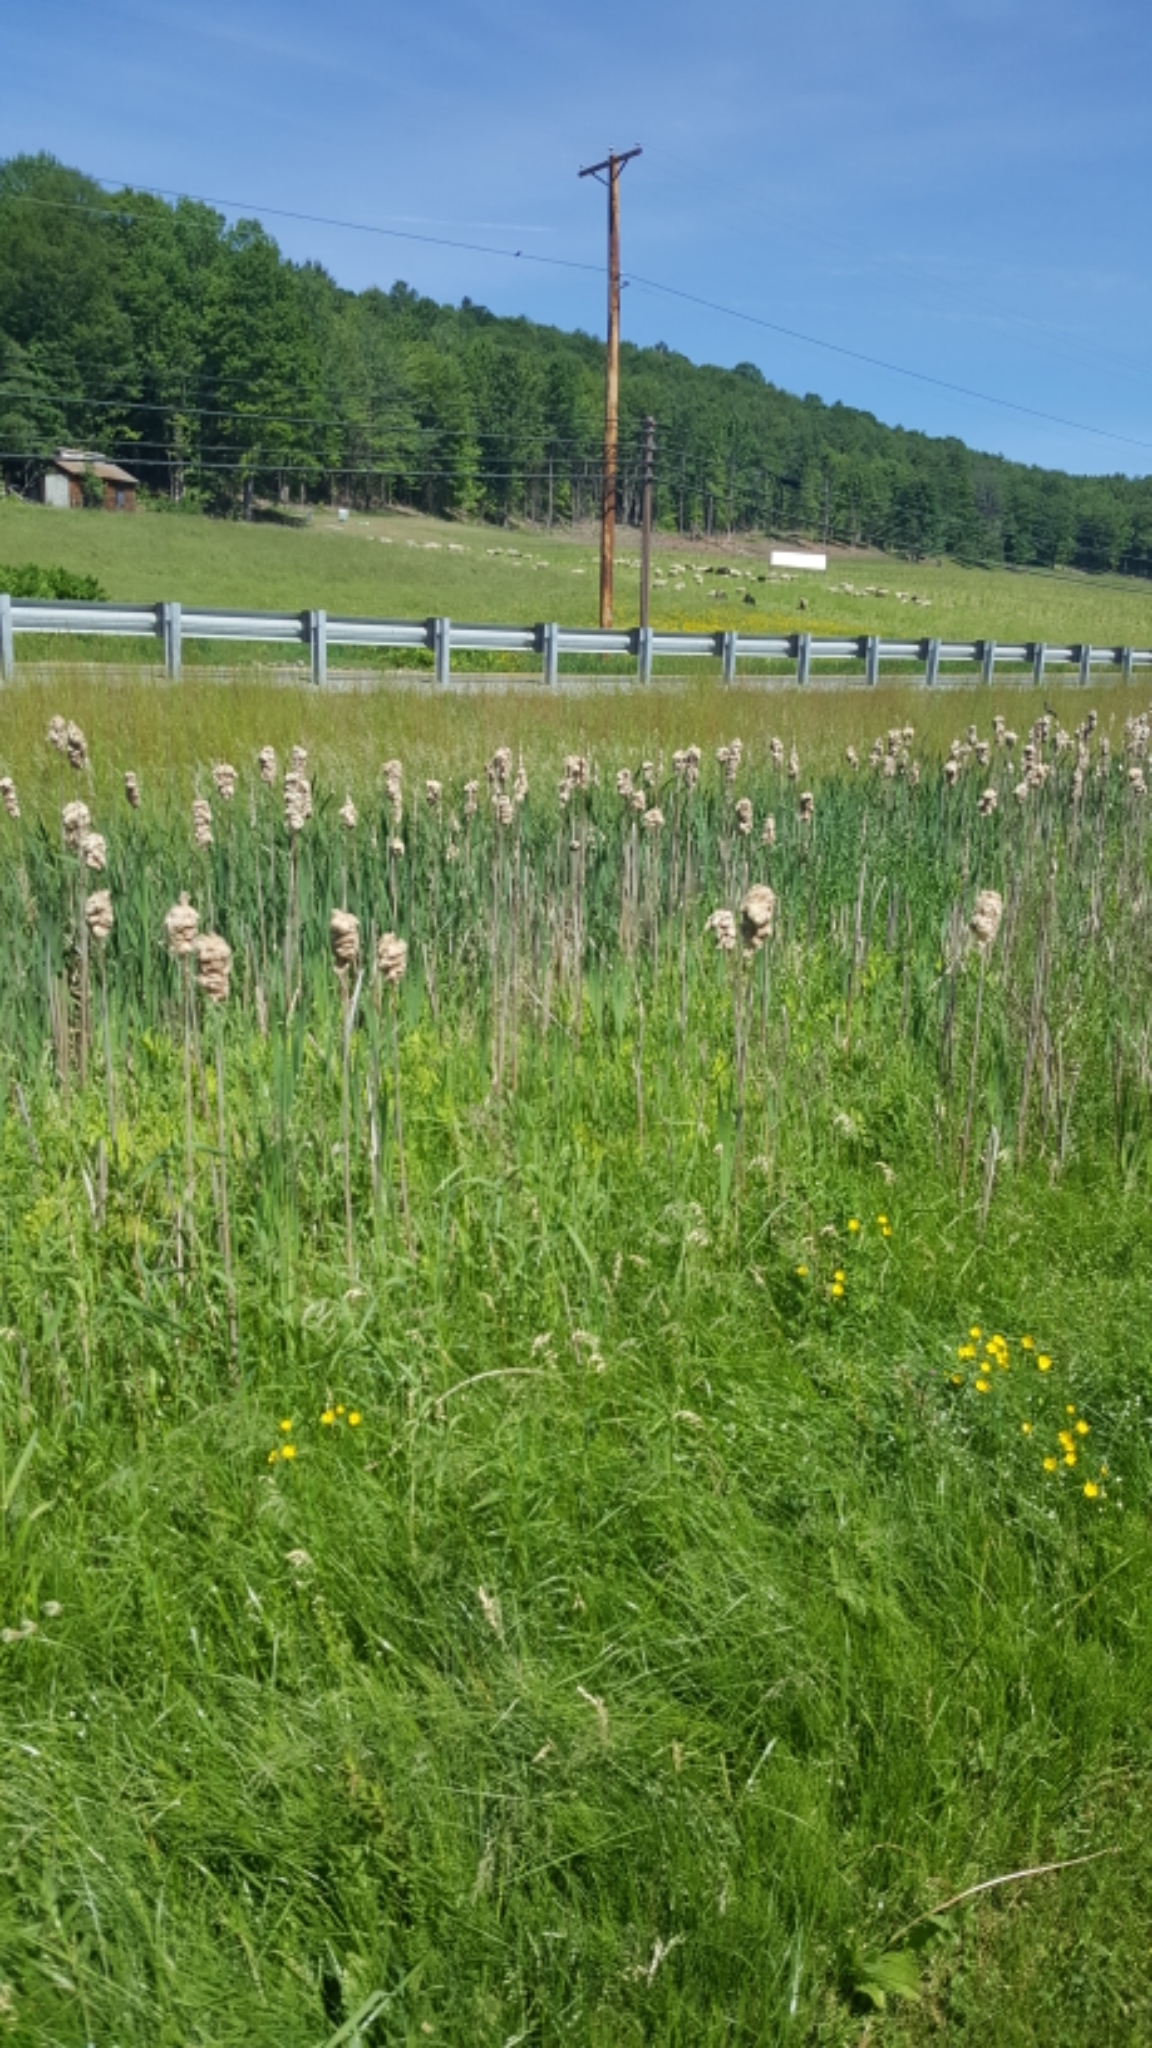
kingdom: Plantae
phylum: Tracheophyta
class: Liliopsida
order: Poales
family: Typhaceae
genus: Typha
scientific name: Typha latifolia
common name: Broadleaf cattail
